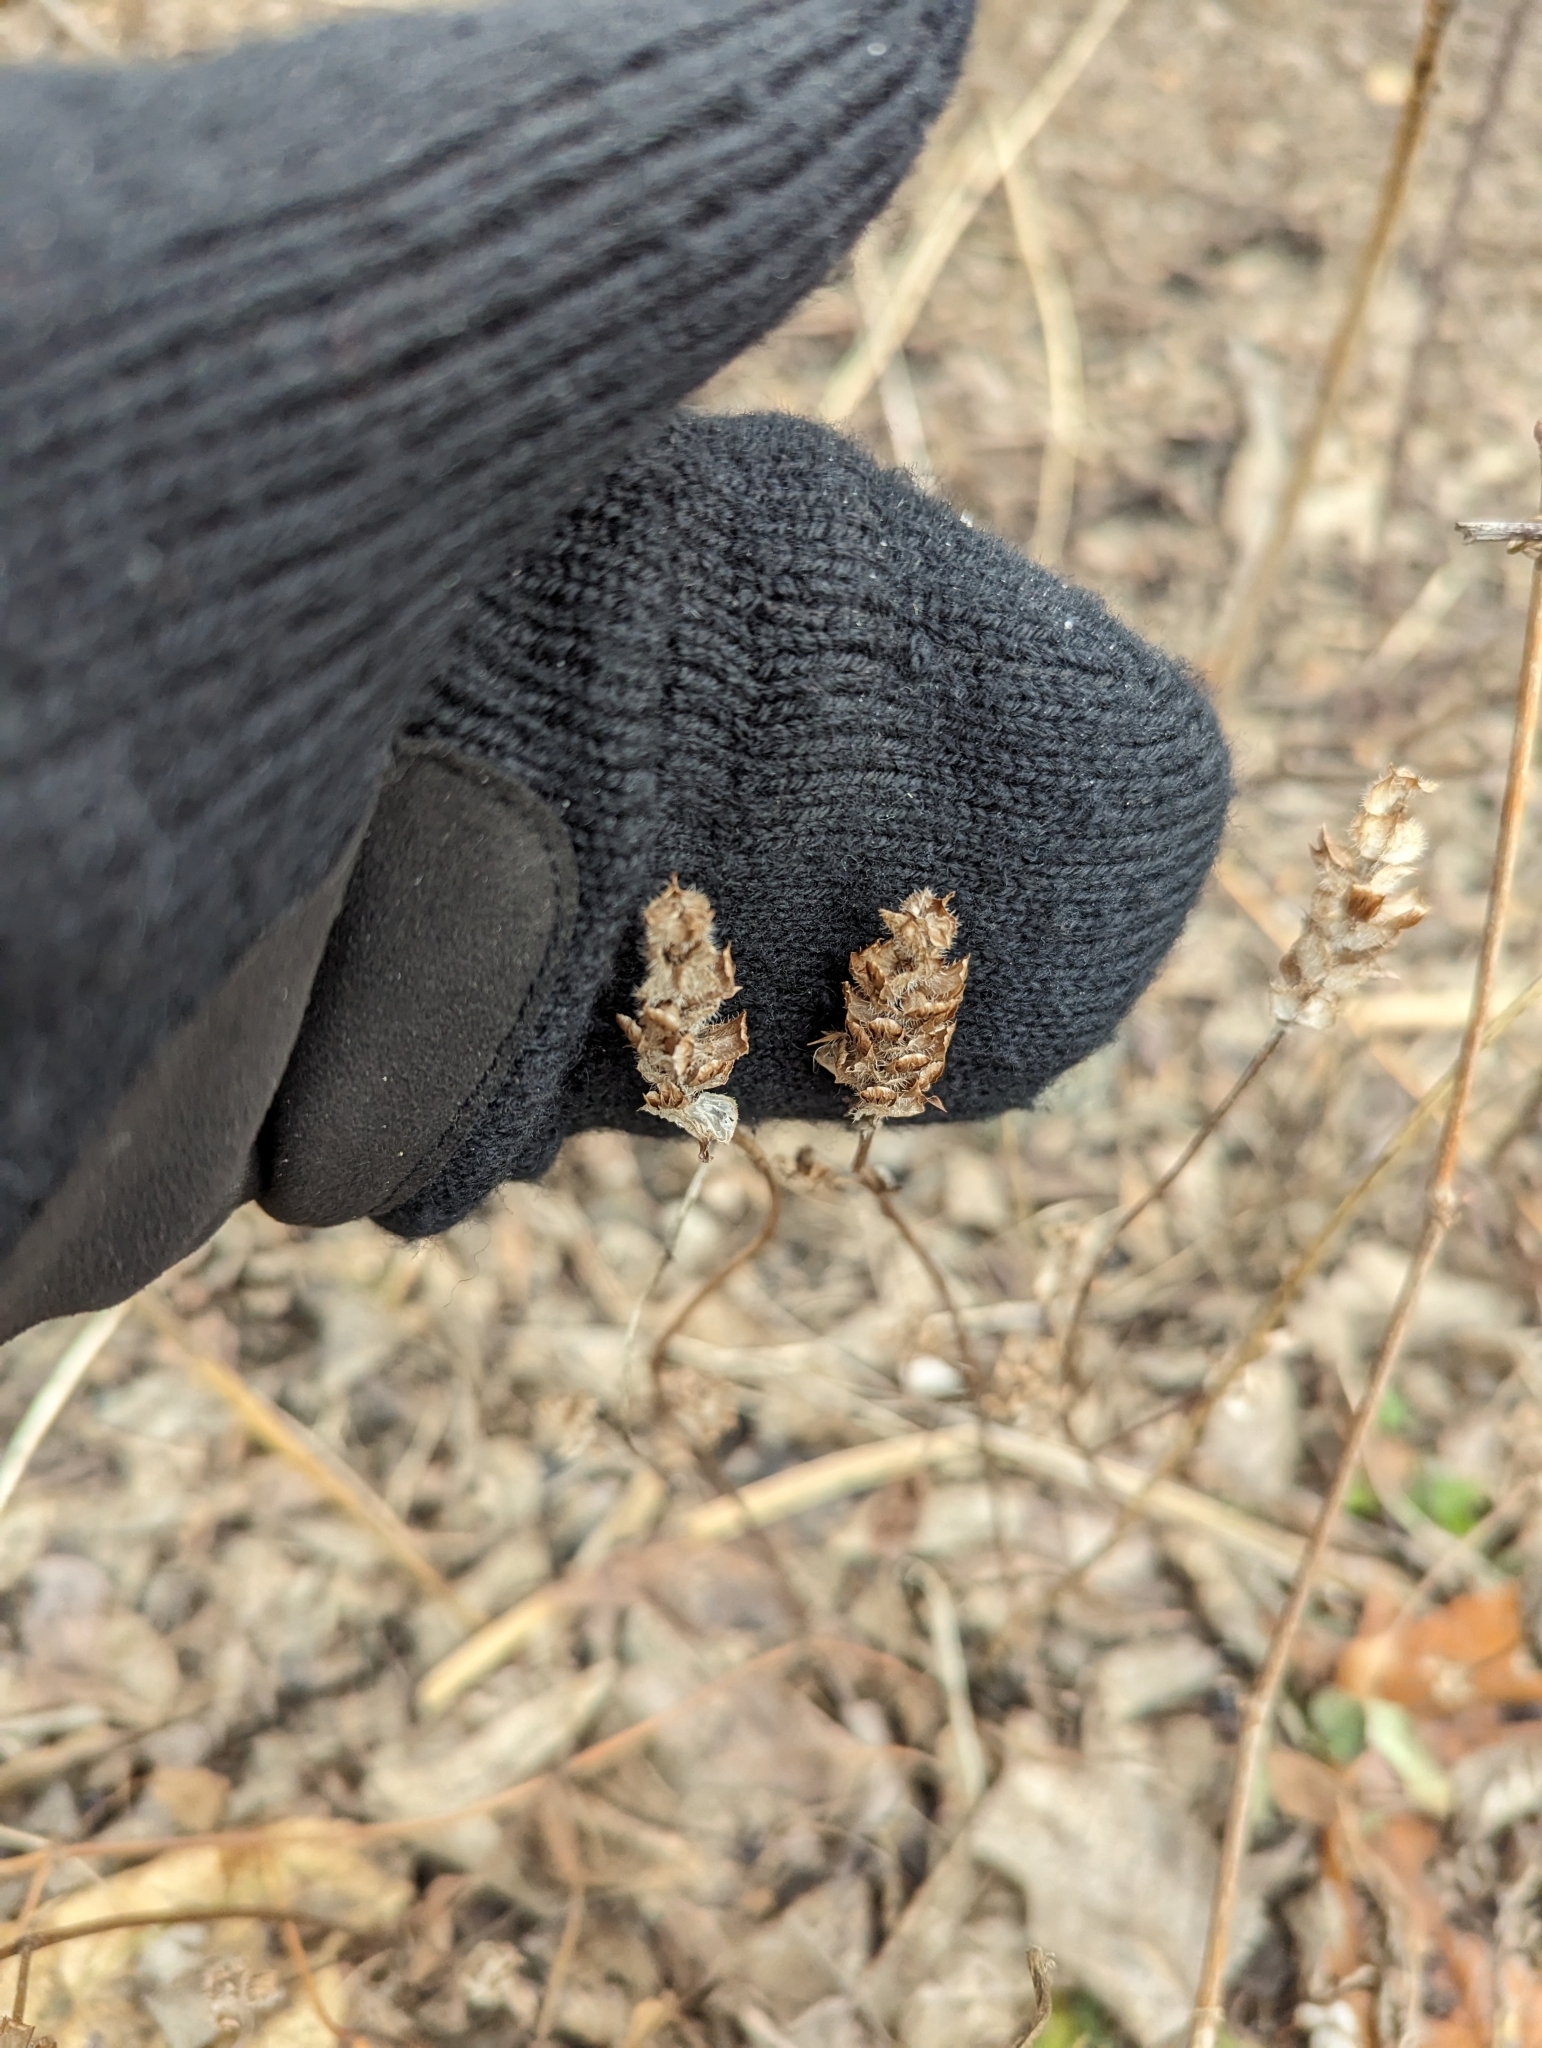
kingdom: Plantae
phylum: Tracheophyta
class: Magnoliopsida
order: Lamiales
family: Lamiaceae
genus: Prunella
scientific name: Prunella vulgaris
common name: Heal-all
